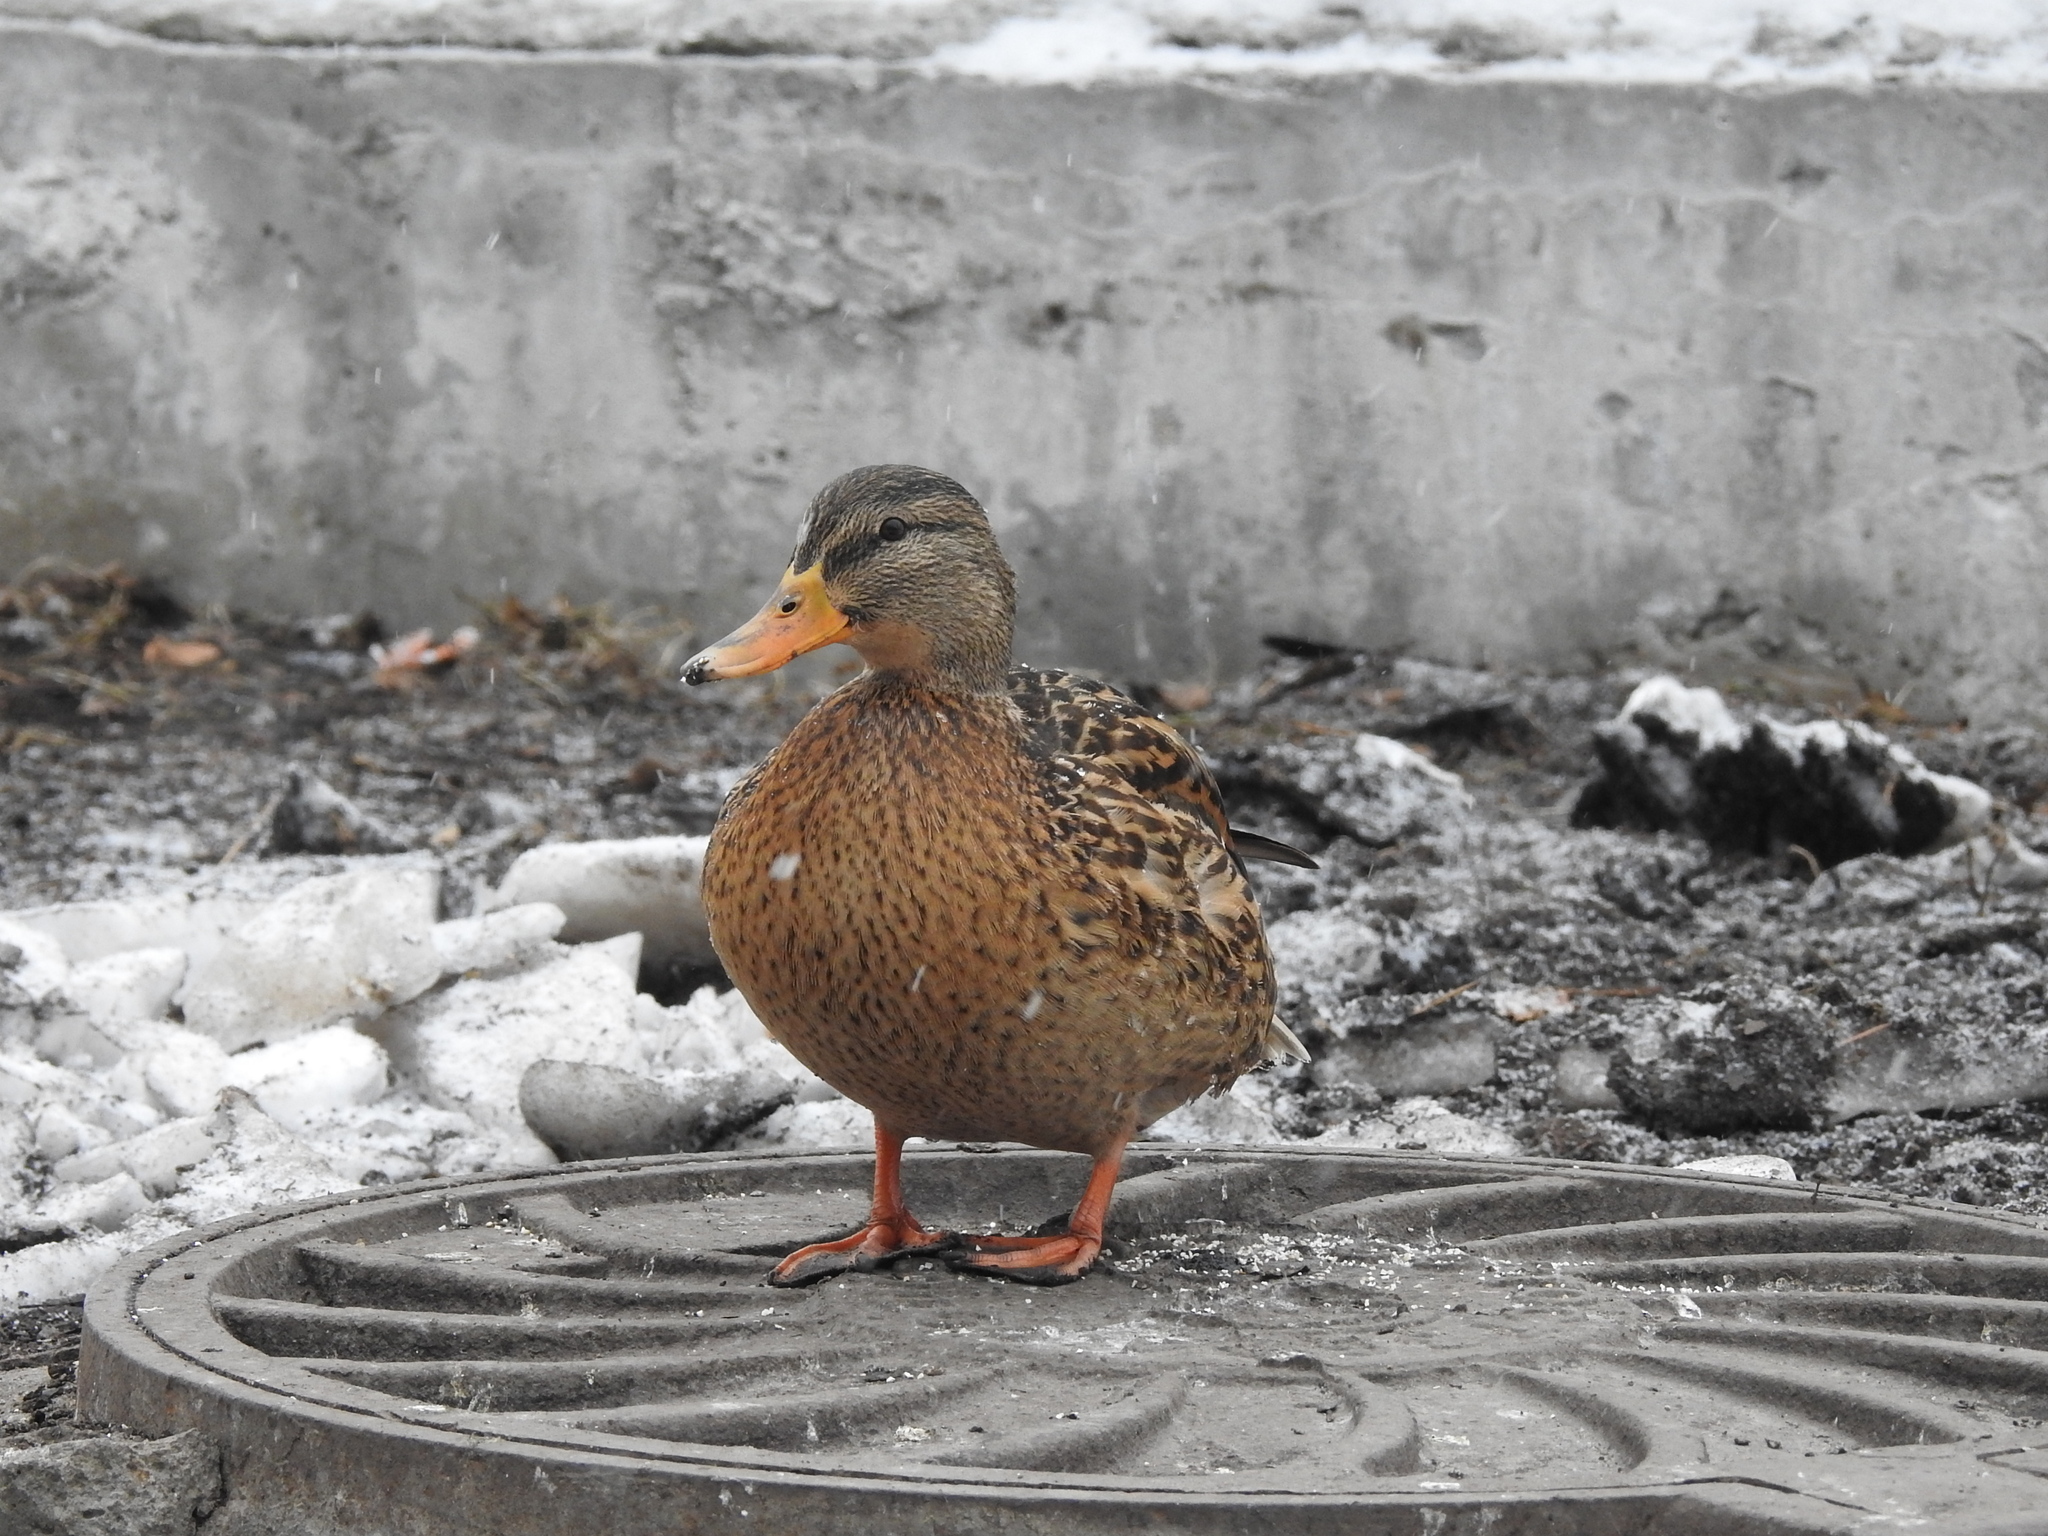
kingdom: Animalia
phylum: Chordata
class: Aves
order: Anseriformes
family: Anatidae
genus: Anas
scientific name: Anas platyrhynchos
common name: Mallard
